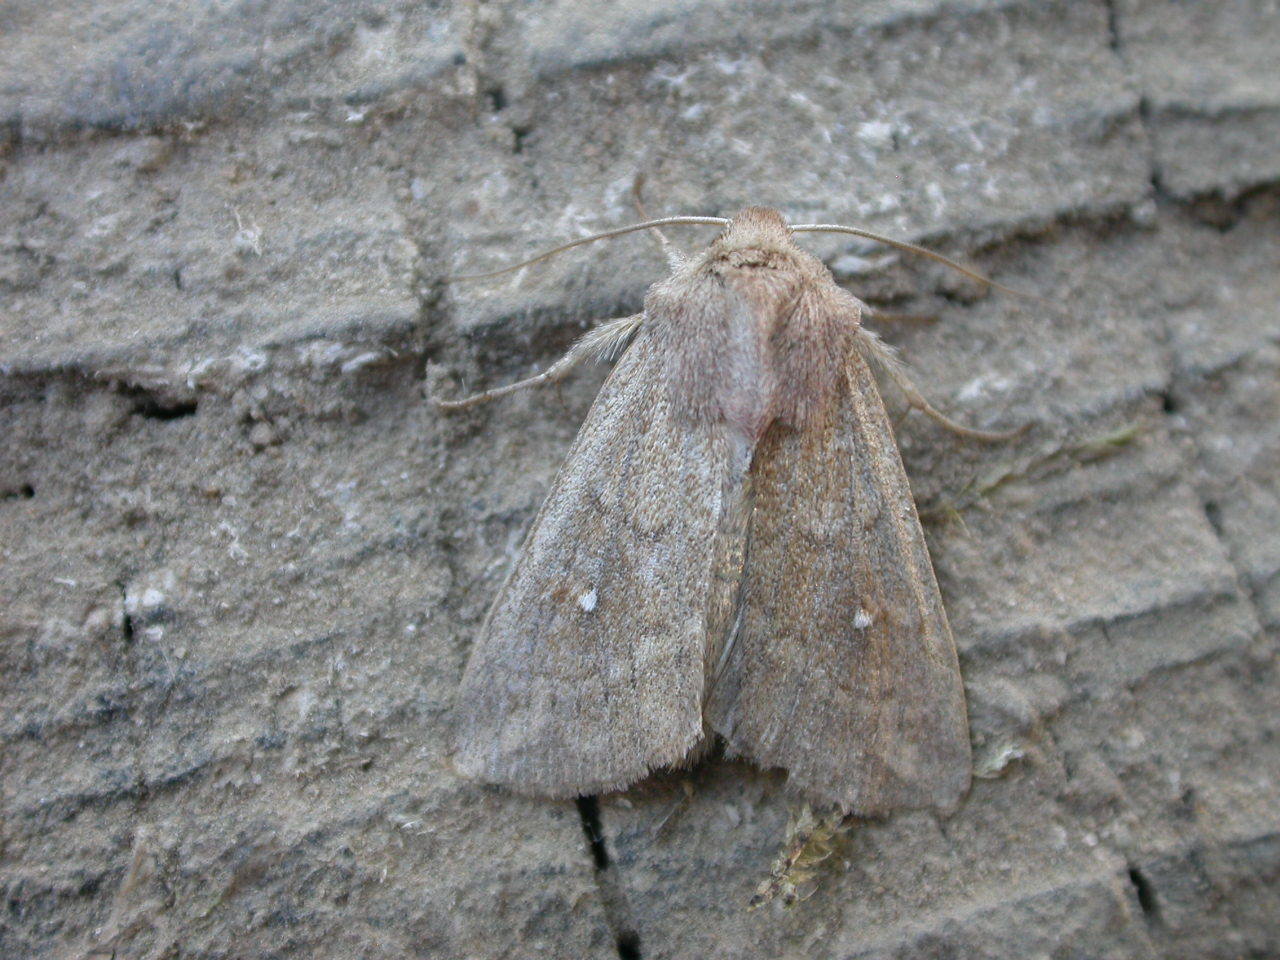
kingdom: Animalia
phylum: Arthropoda
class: Insecta
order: Lepidoptera
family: Noctuidae
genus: Mythimna
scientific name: Mythimna albipuncta
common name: White-point
